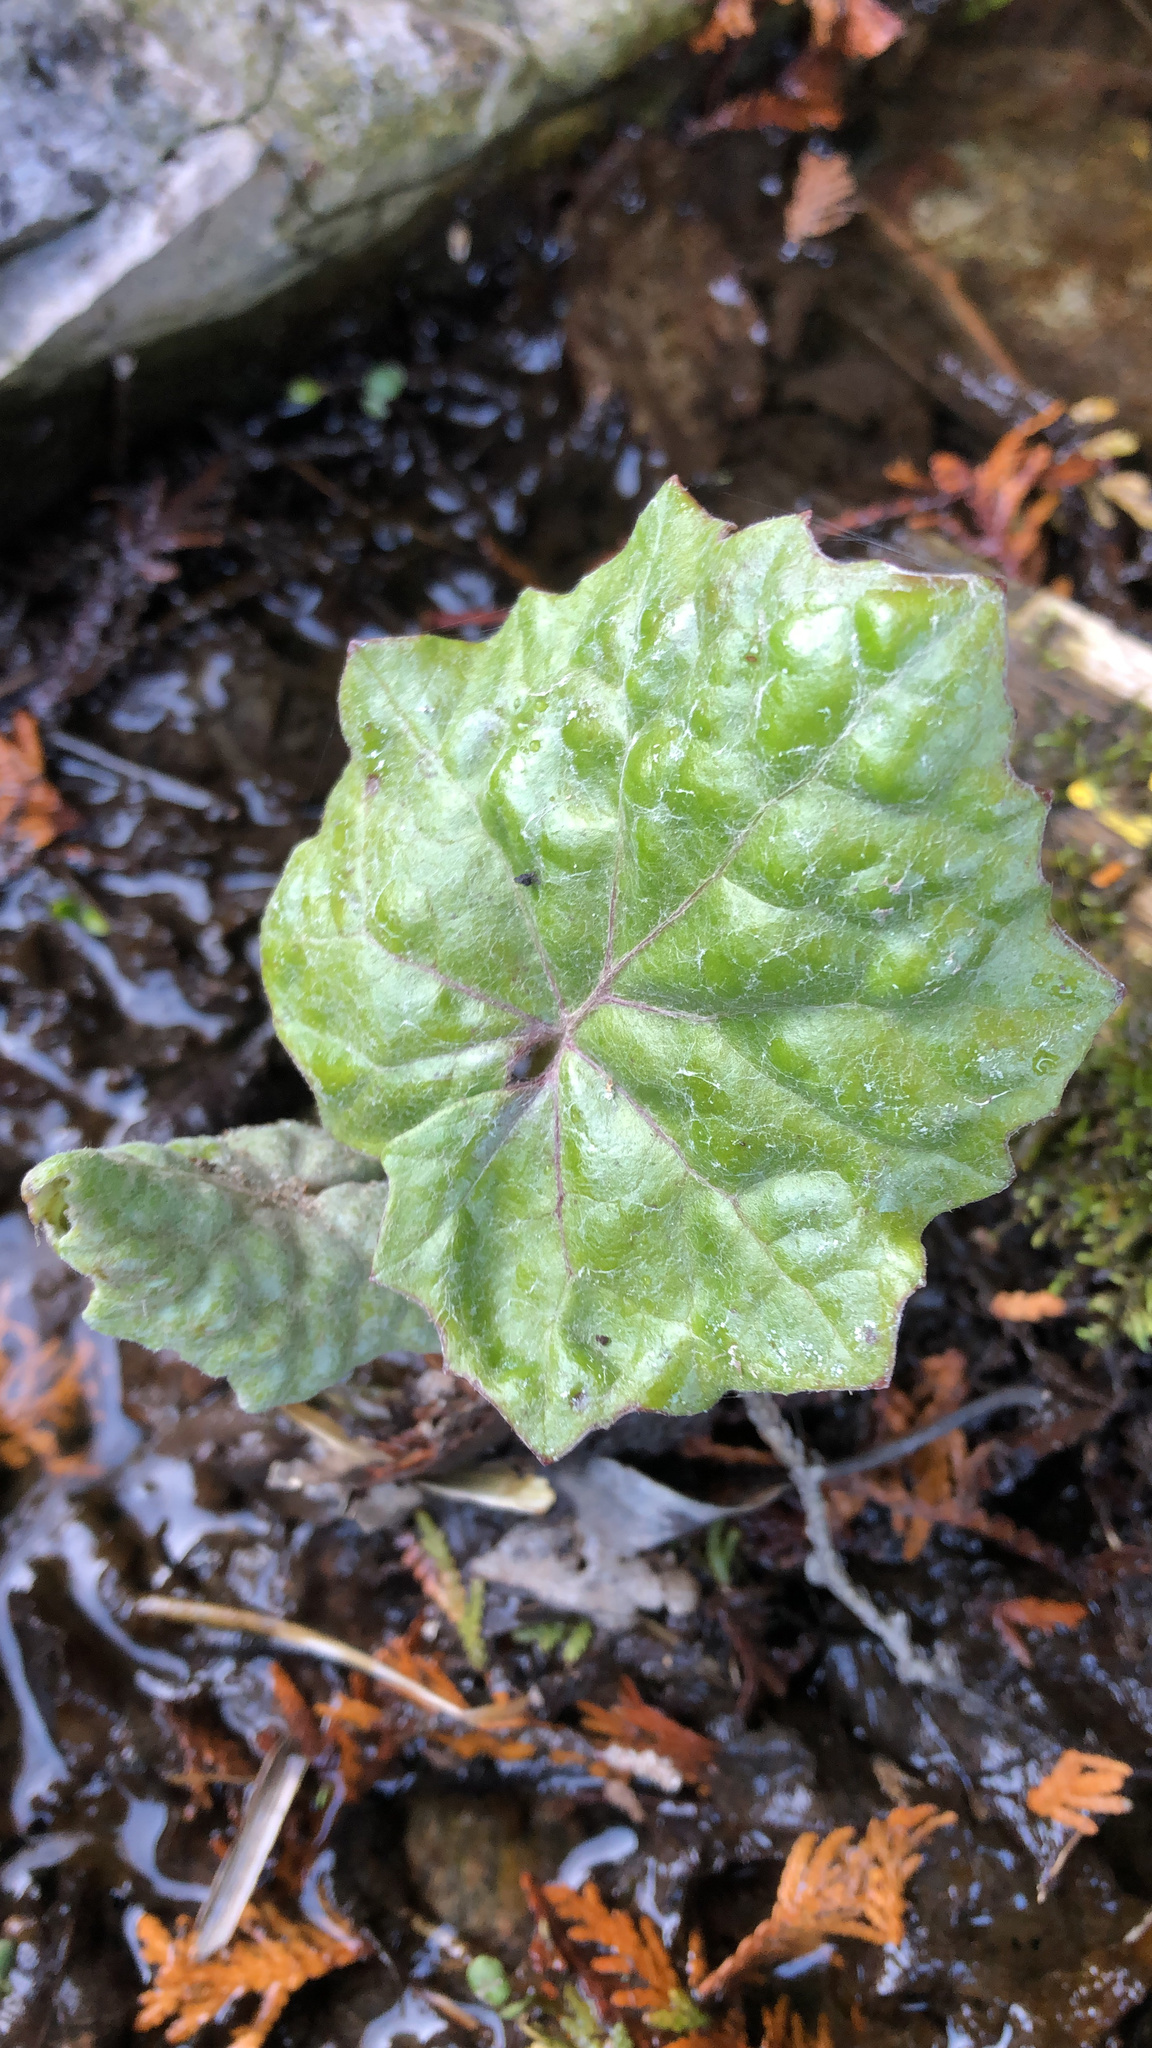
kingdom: Plantae
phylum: Tracheophyta
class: Magnoliopsida
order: Asterales
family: Asteraceae
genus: Tussilago
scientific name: Tussilago farfara
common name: Coltsfoot
